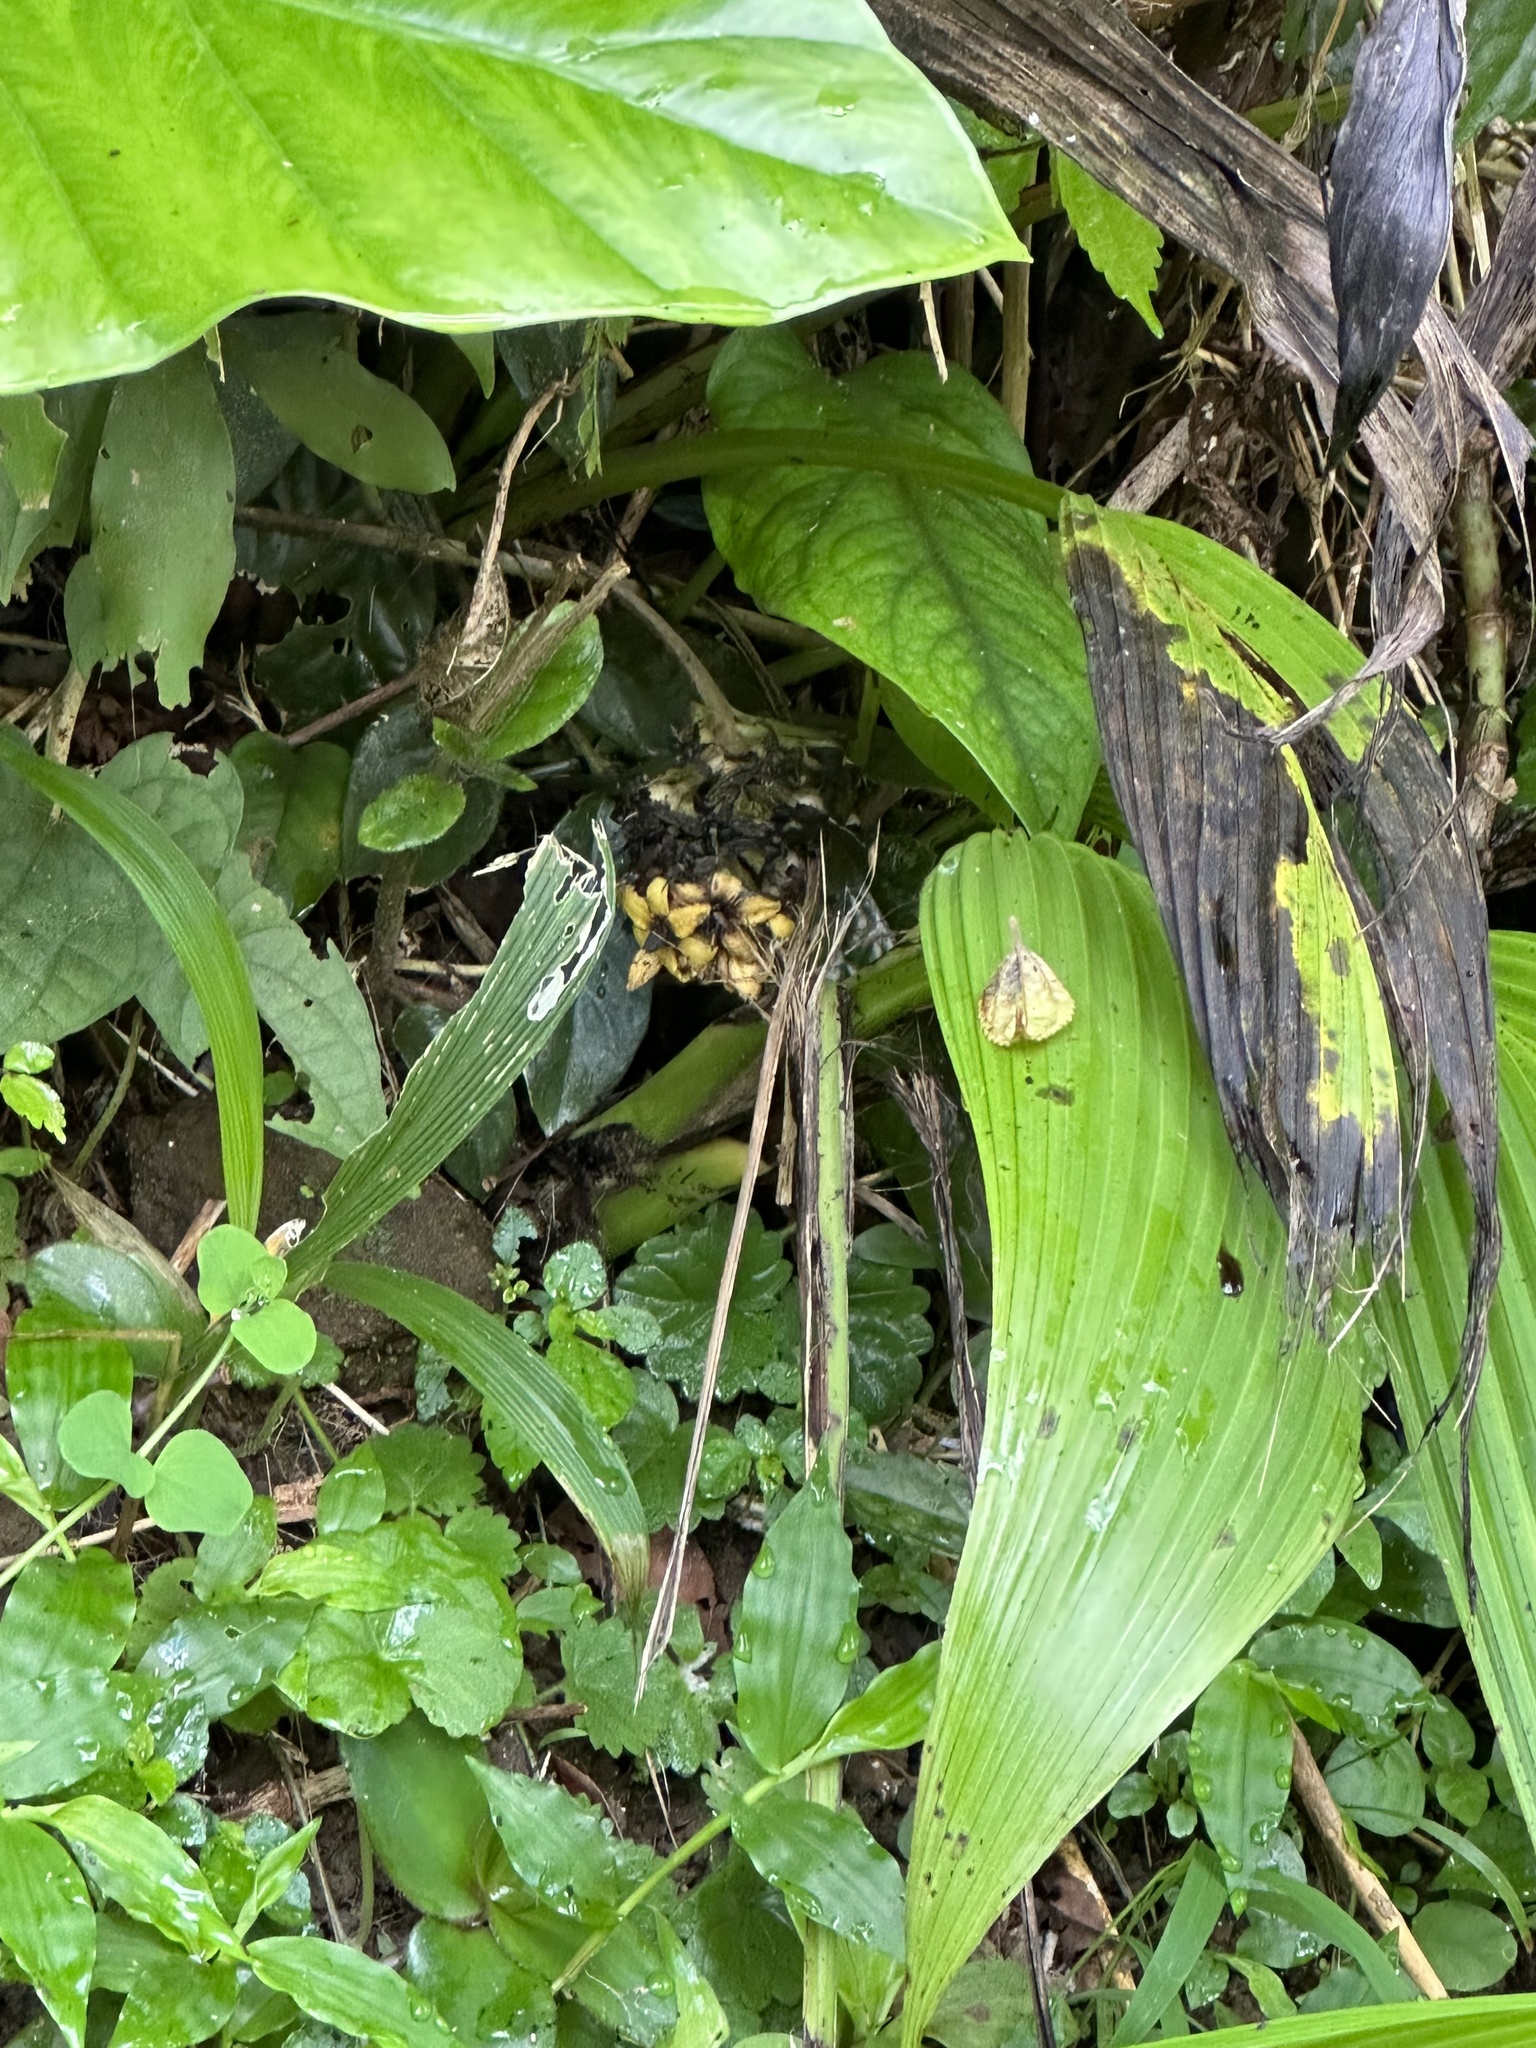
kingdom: Plantae
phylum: Tracheophyta
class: Liliopsida
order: Asparagales
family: Hypoxidaceae
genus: Curculigo
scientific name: Curculigo capitulata
